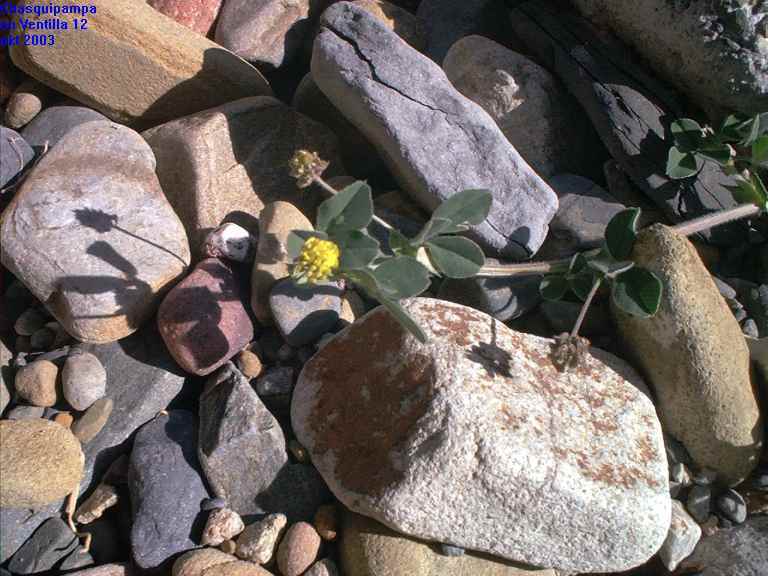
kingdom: Plantae
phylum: Tracheophyta
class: Magnoliopsida
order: Fabales
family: Fabaceae
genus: Medicago
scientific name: Medicago lupulina
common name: Black medick
